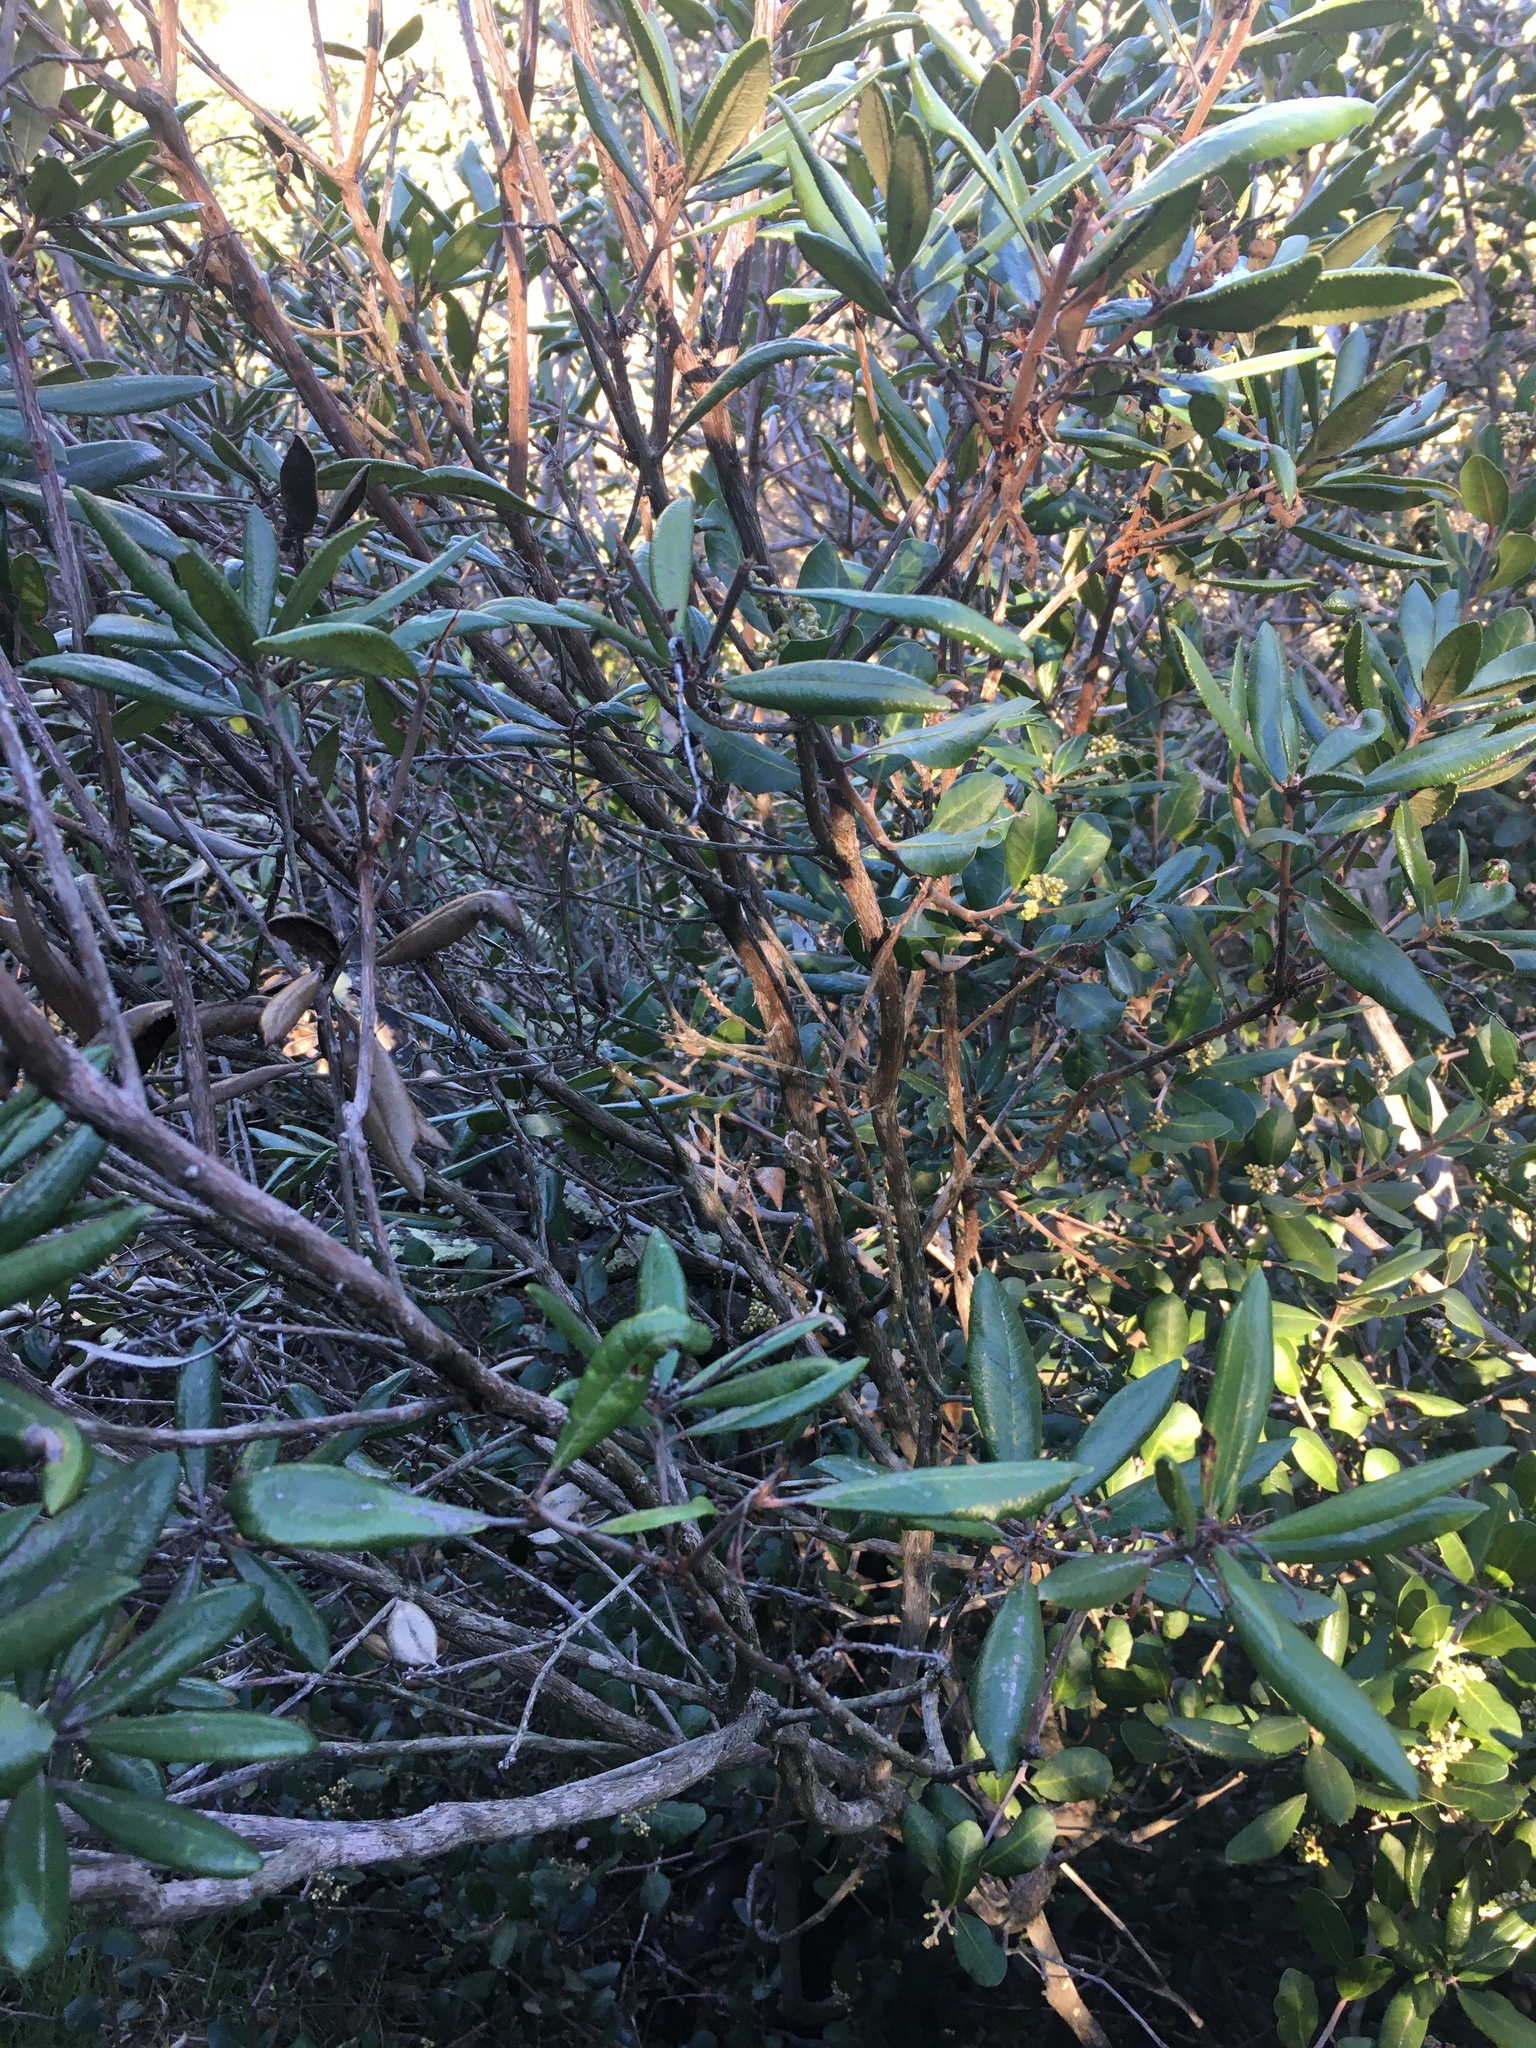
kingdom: Plantae
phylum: Tracheophyta
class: Magnoliopsida
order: Ericales
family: Ericaceae
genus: Comarostaphylis
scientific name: Comarostaphylis diversifolia
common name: Summer-holly
